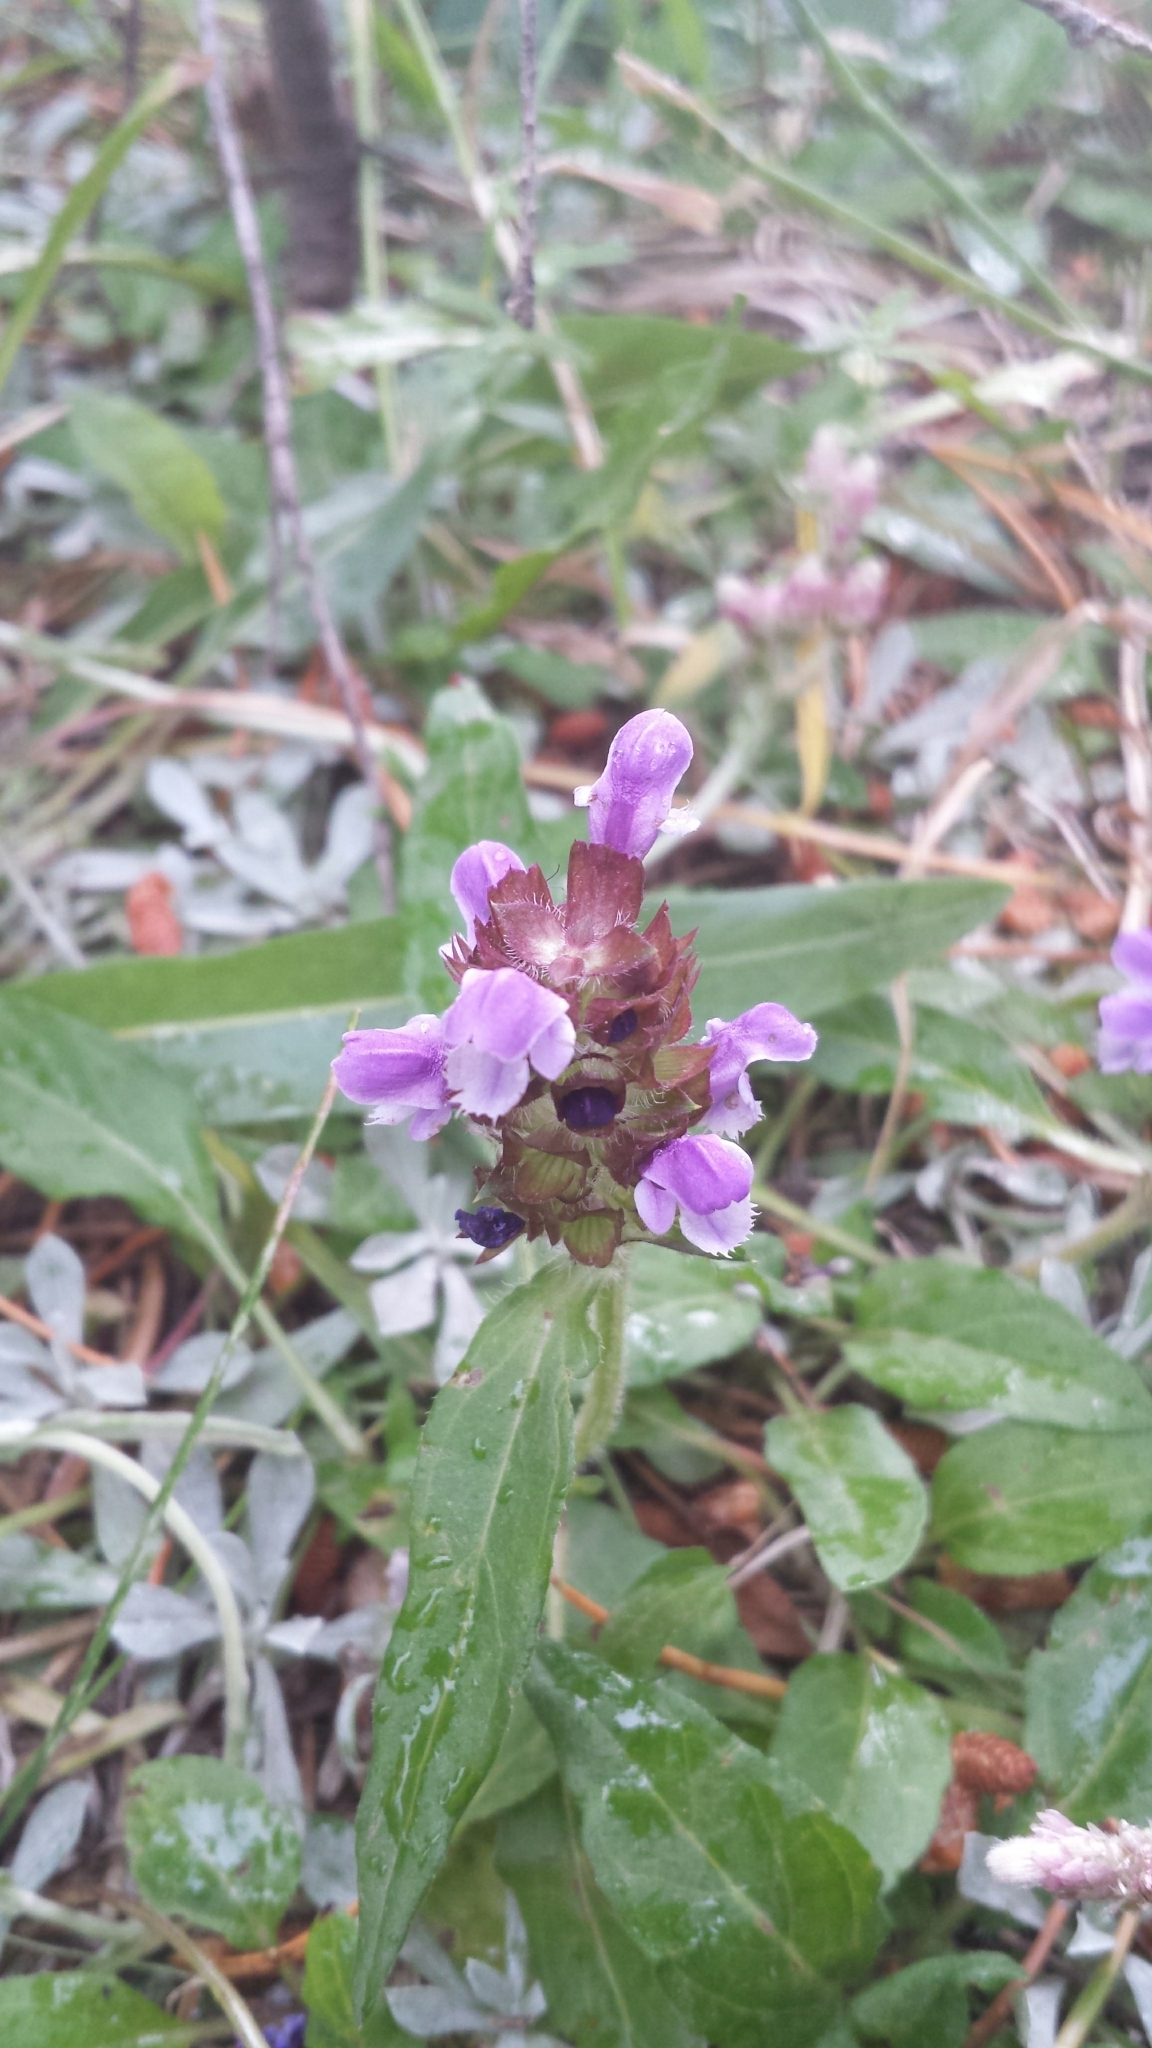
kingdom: Plantae
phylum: Tracheophyta
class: Magnoliopsida
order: Lamiales
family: Lamiaceae
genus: Prunella
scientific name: Prunella vulgaris
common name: Heal-all
